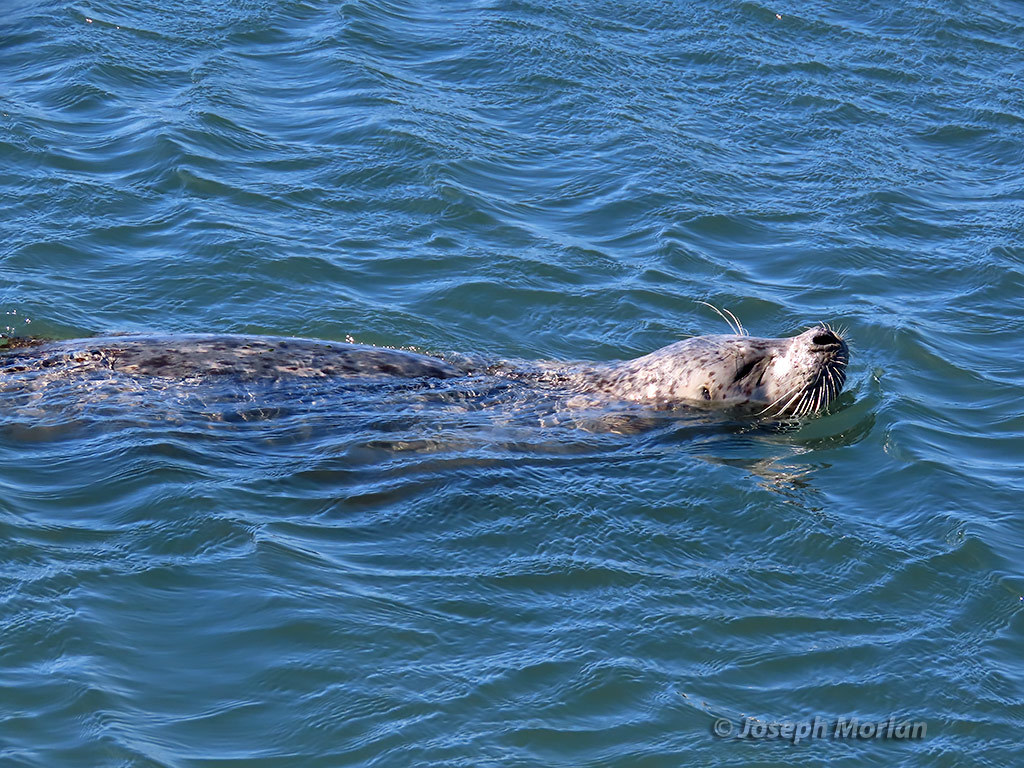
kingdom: Animalia
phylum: Chordata
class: Mammalia
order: Carnivora
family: Phocidae
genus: Phoca
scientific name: Phoca vitulina
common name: Harbor seal
